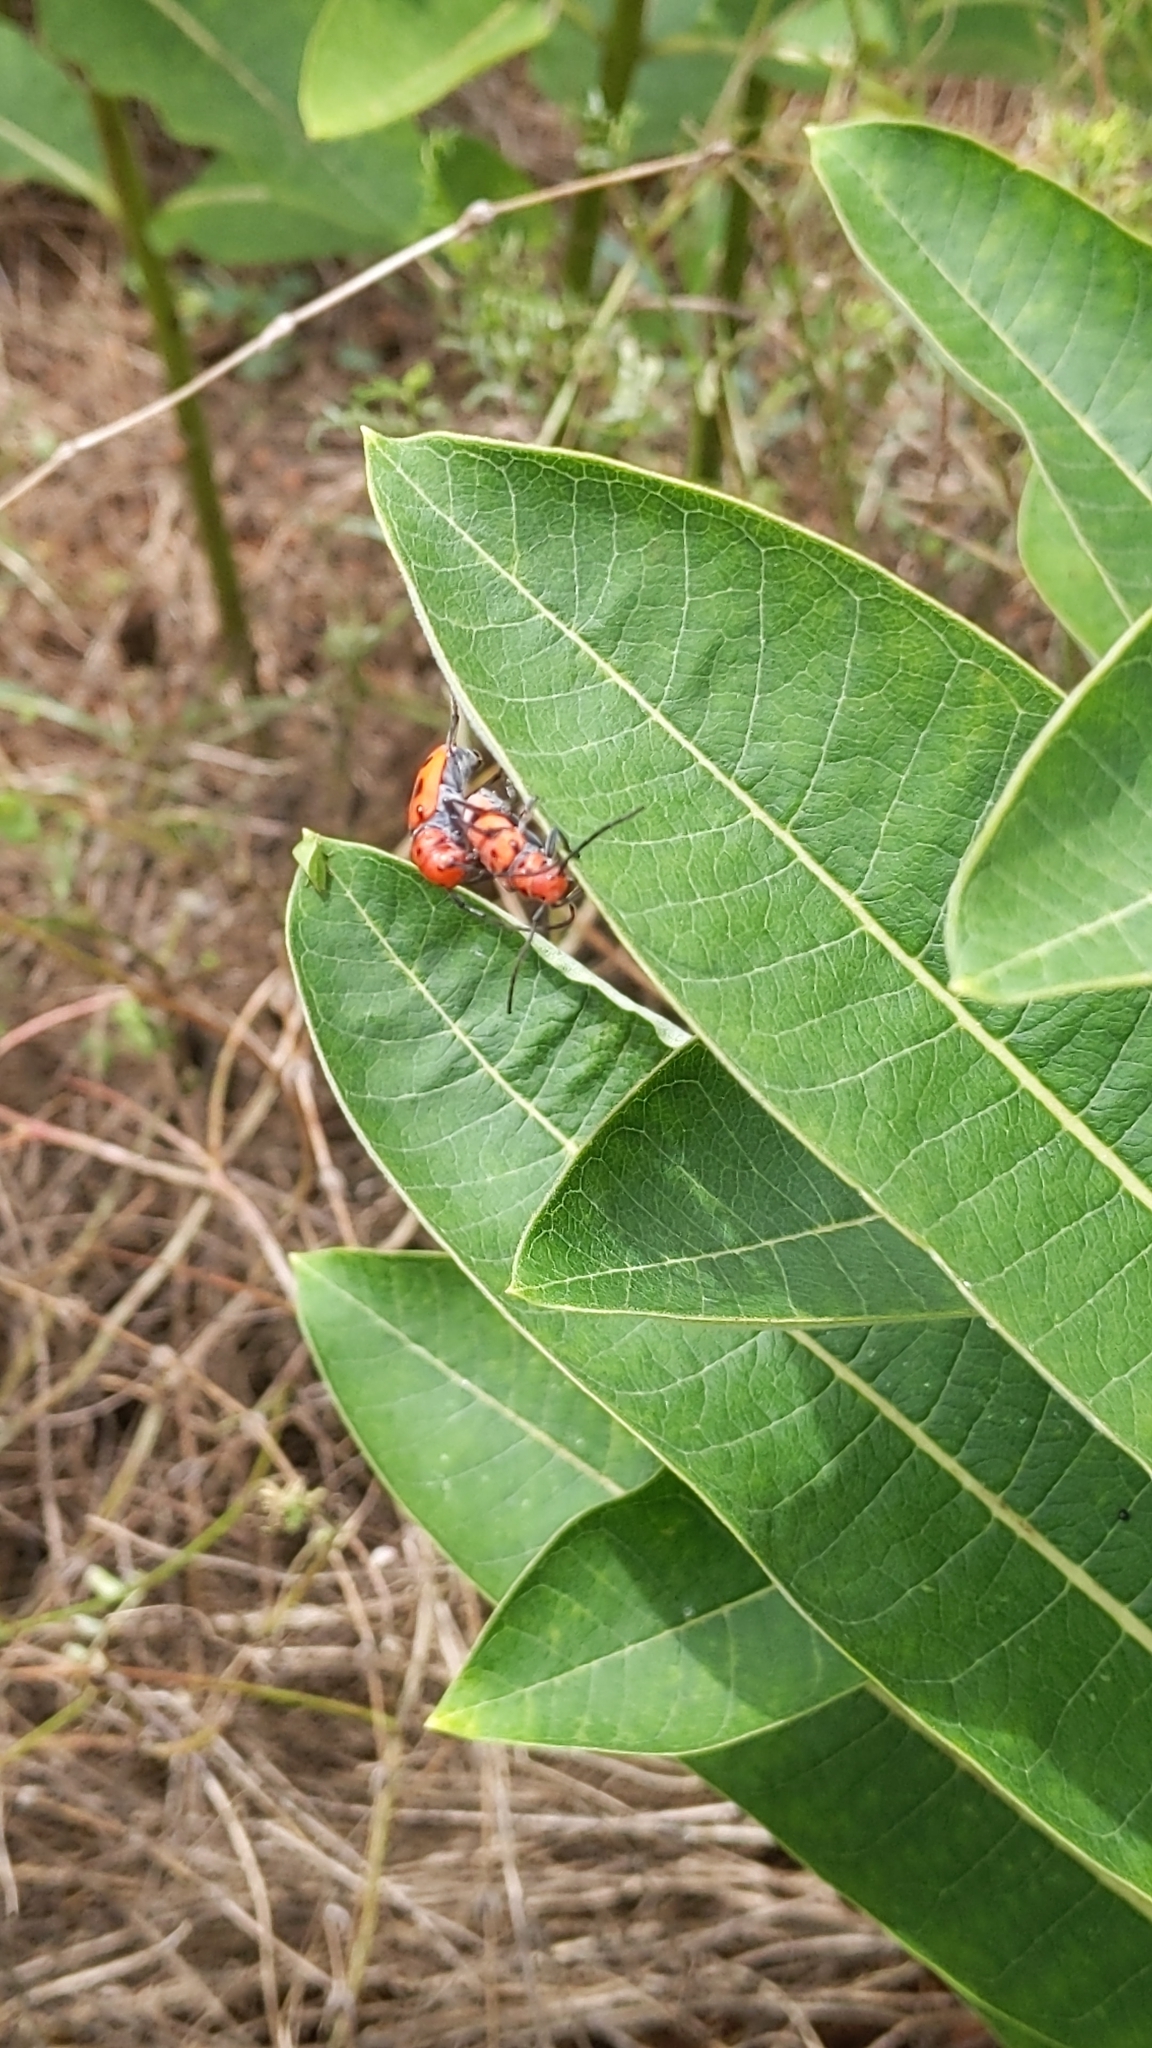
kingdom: Animalia
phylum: Arthropoda
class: Insecta
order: Coleoptera
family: Cerambycidae
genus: Tetraopes
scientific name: Tetraopes tetrophthalmus
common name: Red milkweed beetle
